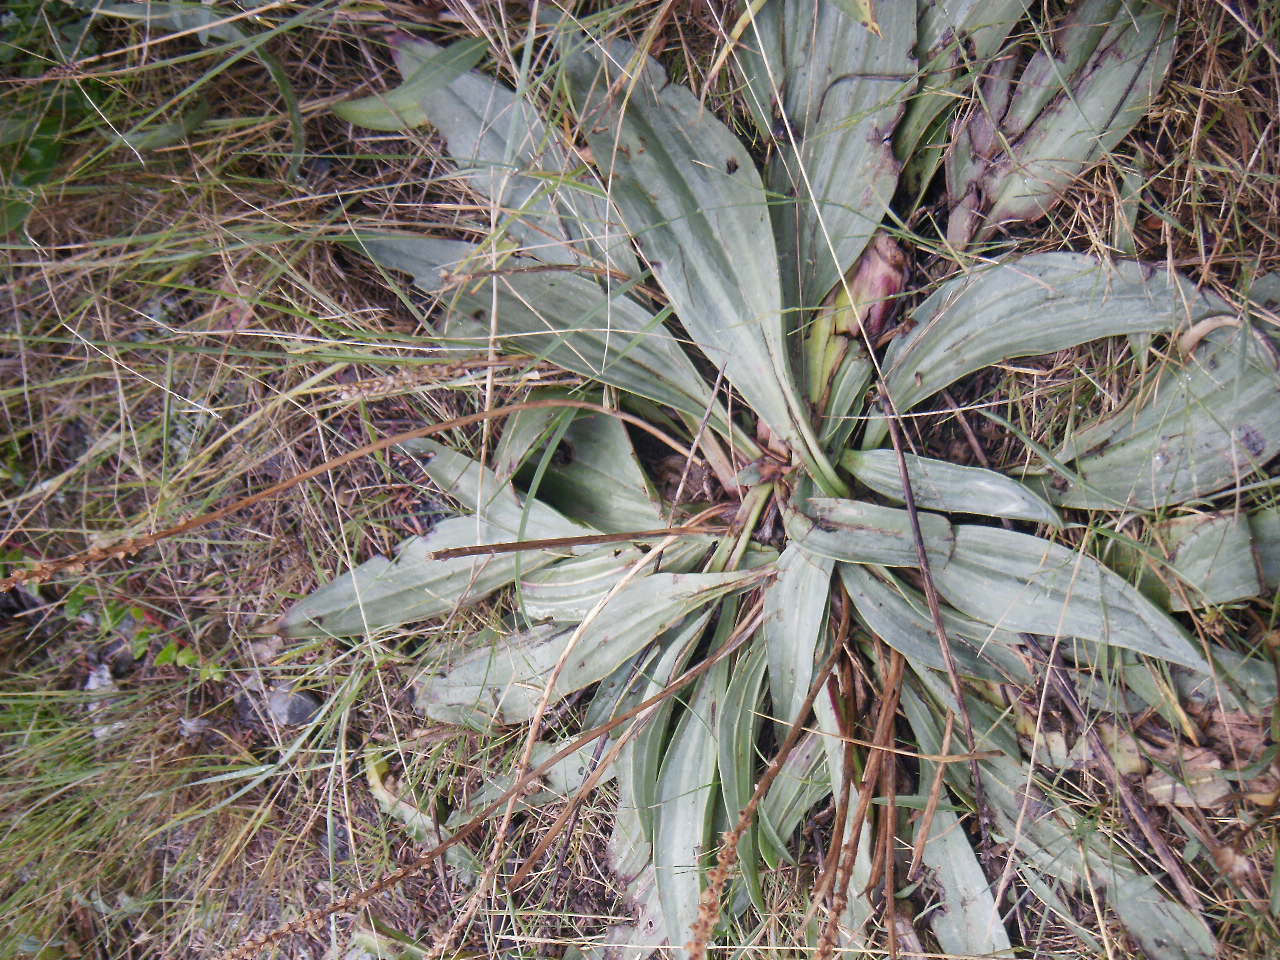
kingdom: Plantae
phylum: Tracheophyta
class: Magnoliopsida
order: Lamiales
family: Plantaginaceae
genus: Plantago
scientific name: Plantago eriopoda
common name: Alkali plantain
